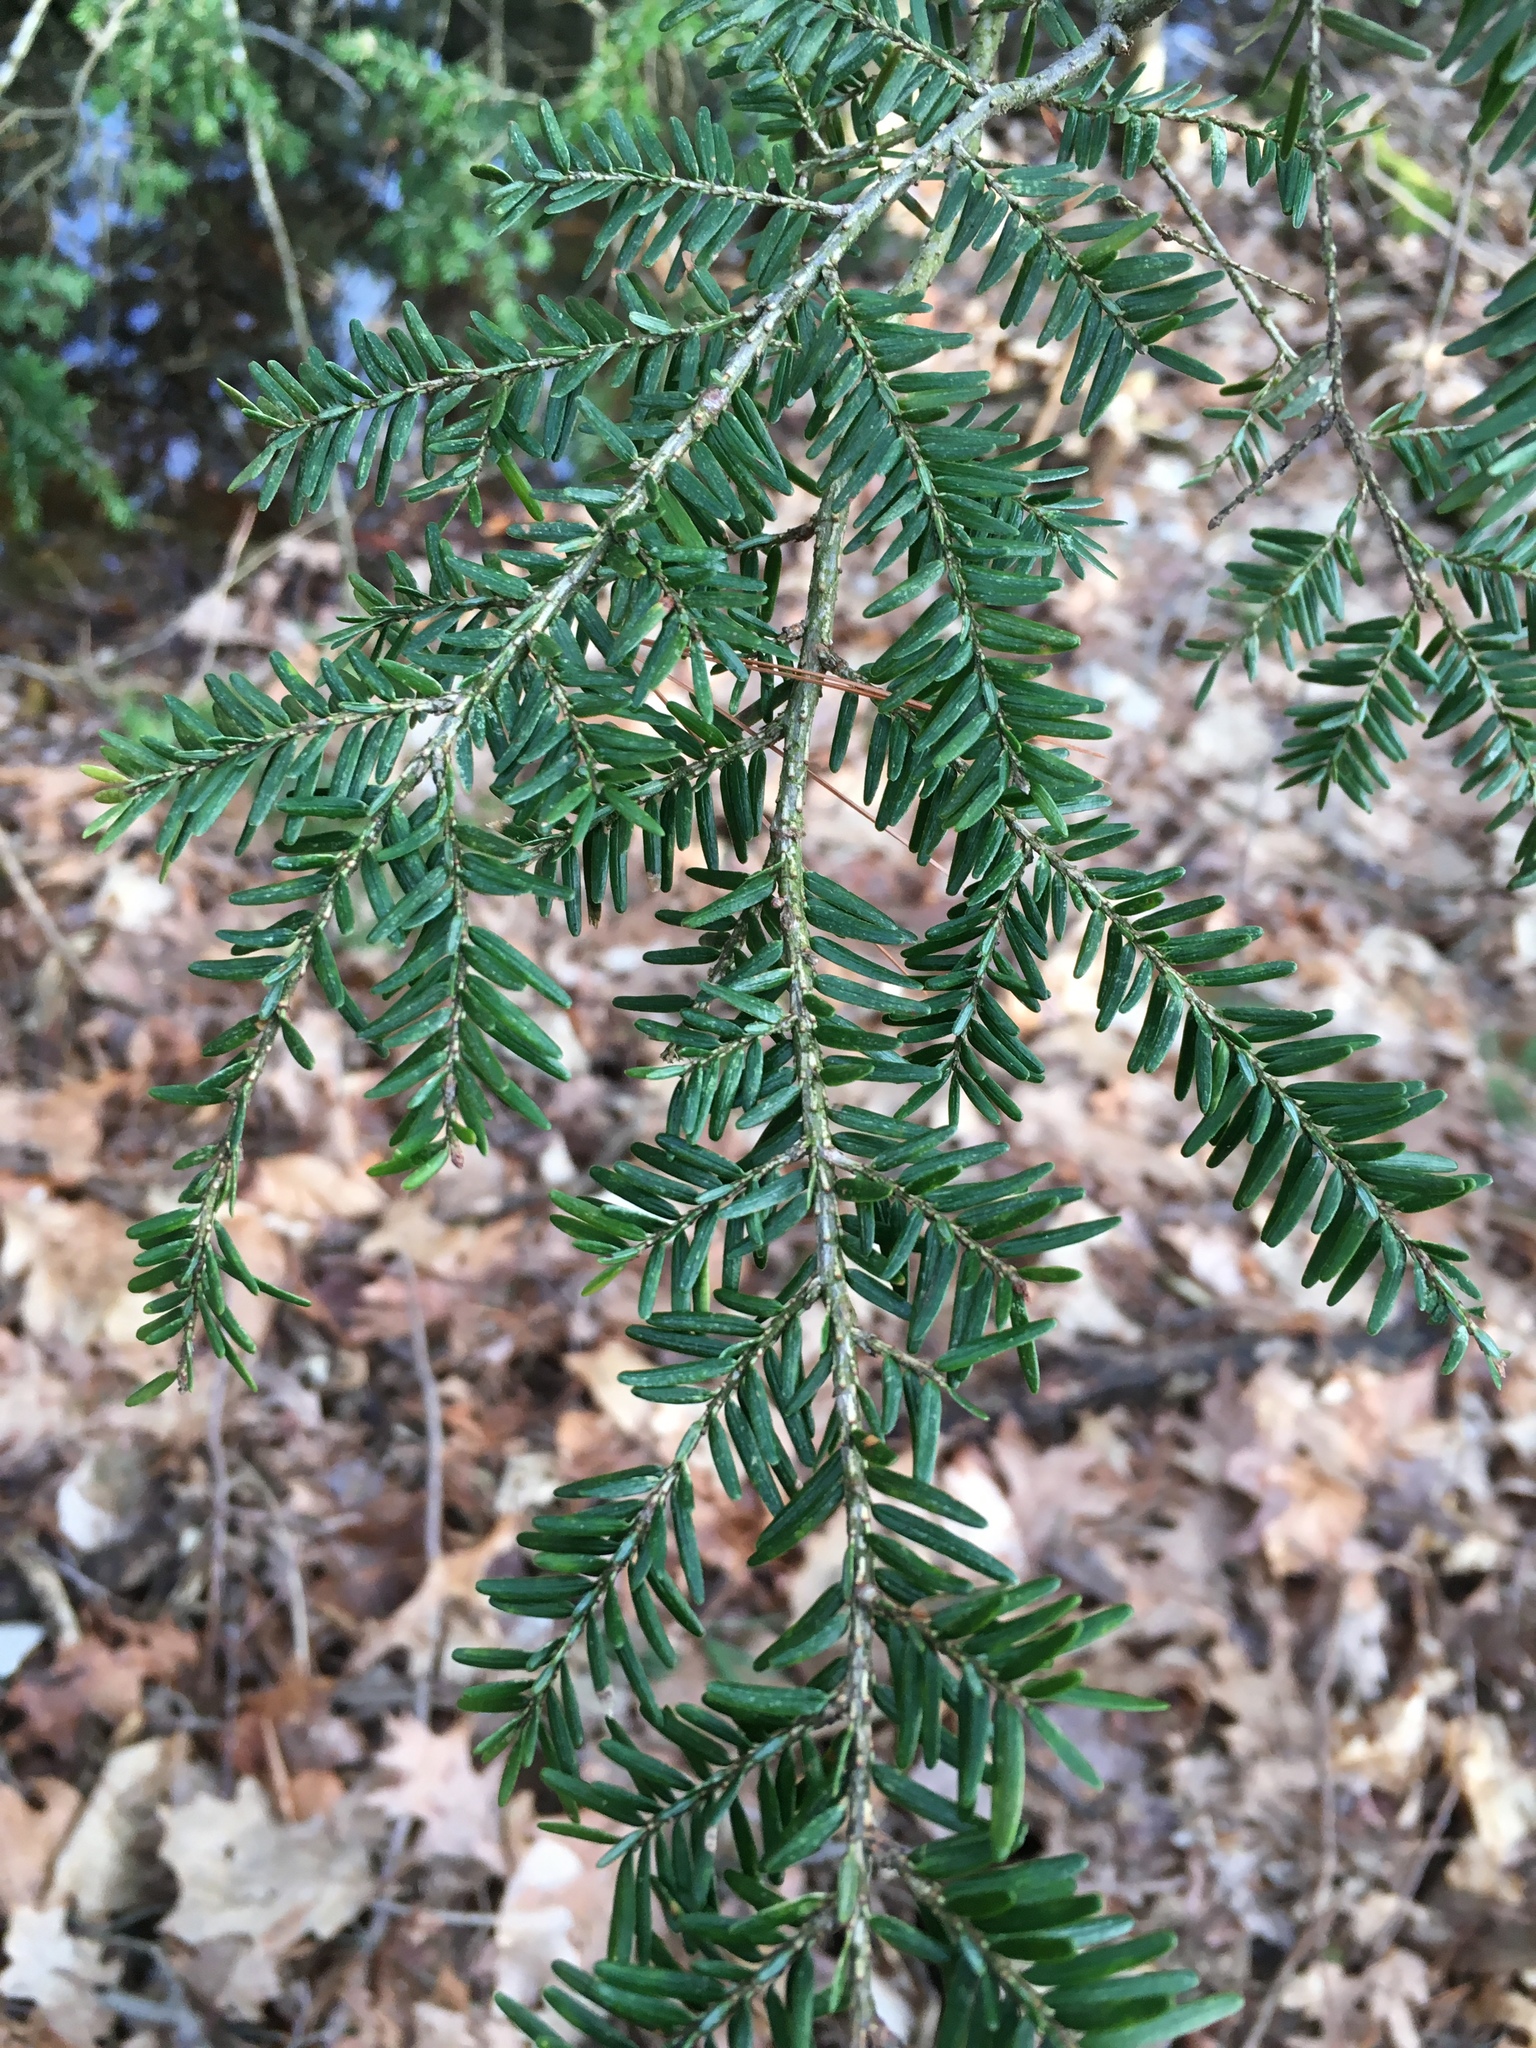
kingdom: Plantae
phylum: Tracheophyta
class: Pinopsida
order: Pinales
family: Pinaceae
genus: Tsuga
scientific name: Tsuga canadensis
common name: Eastern hemlock
